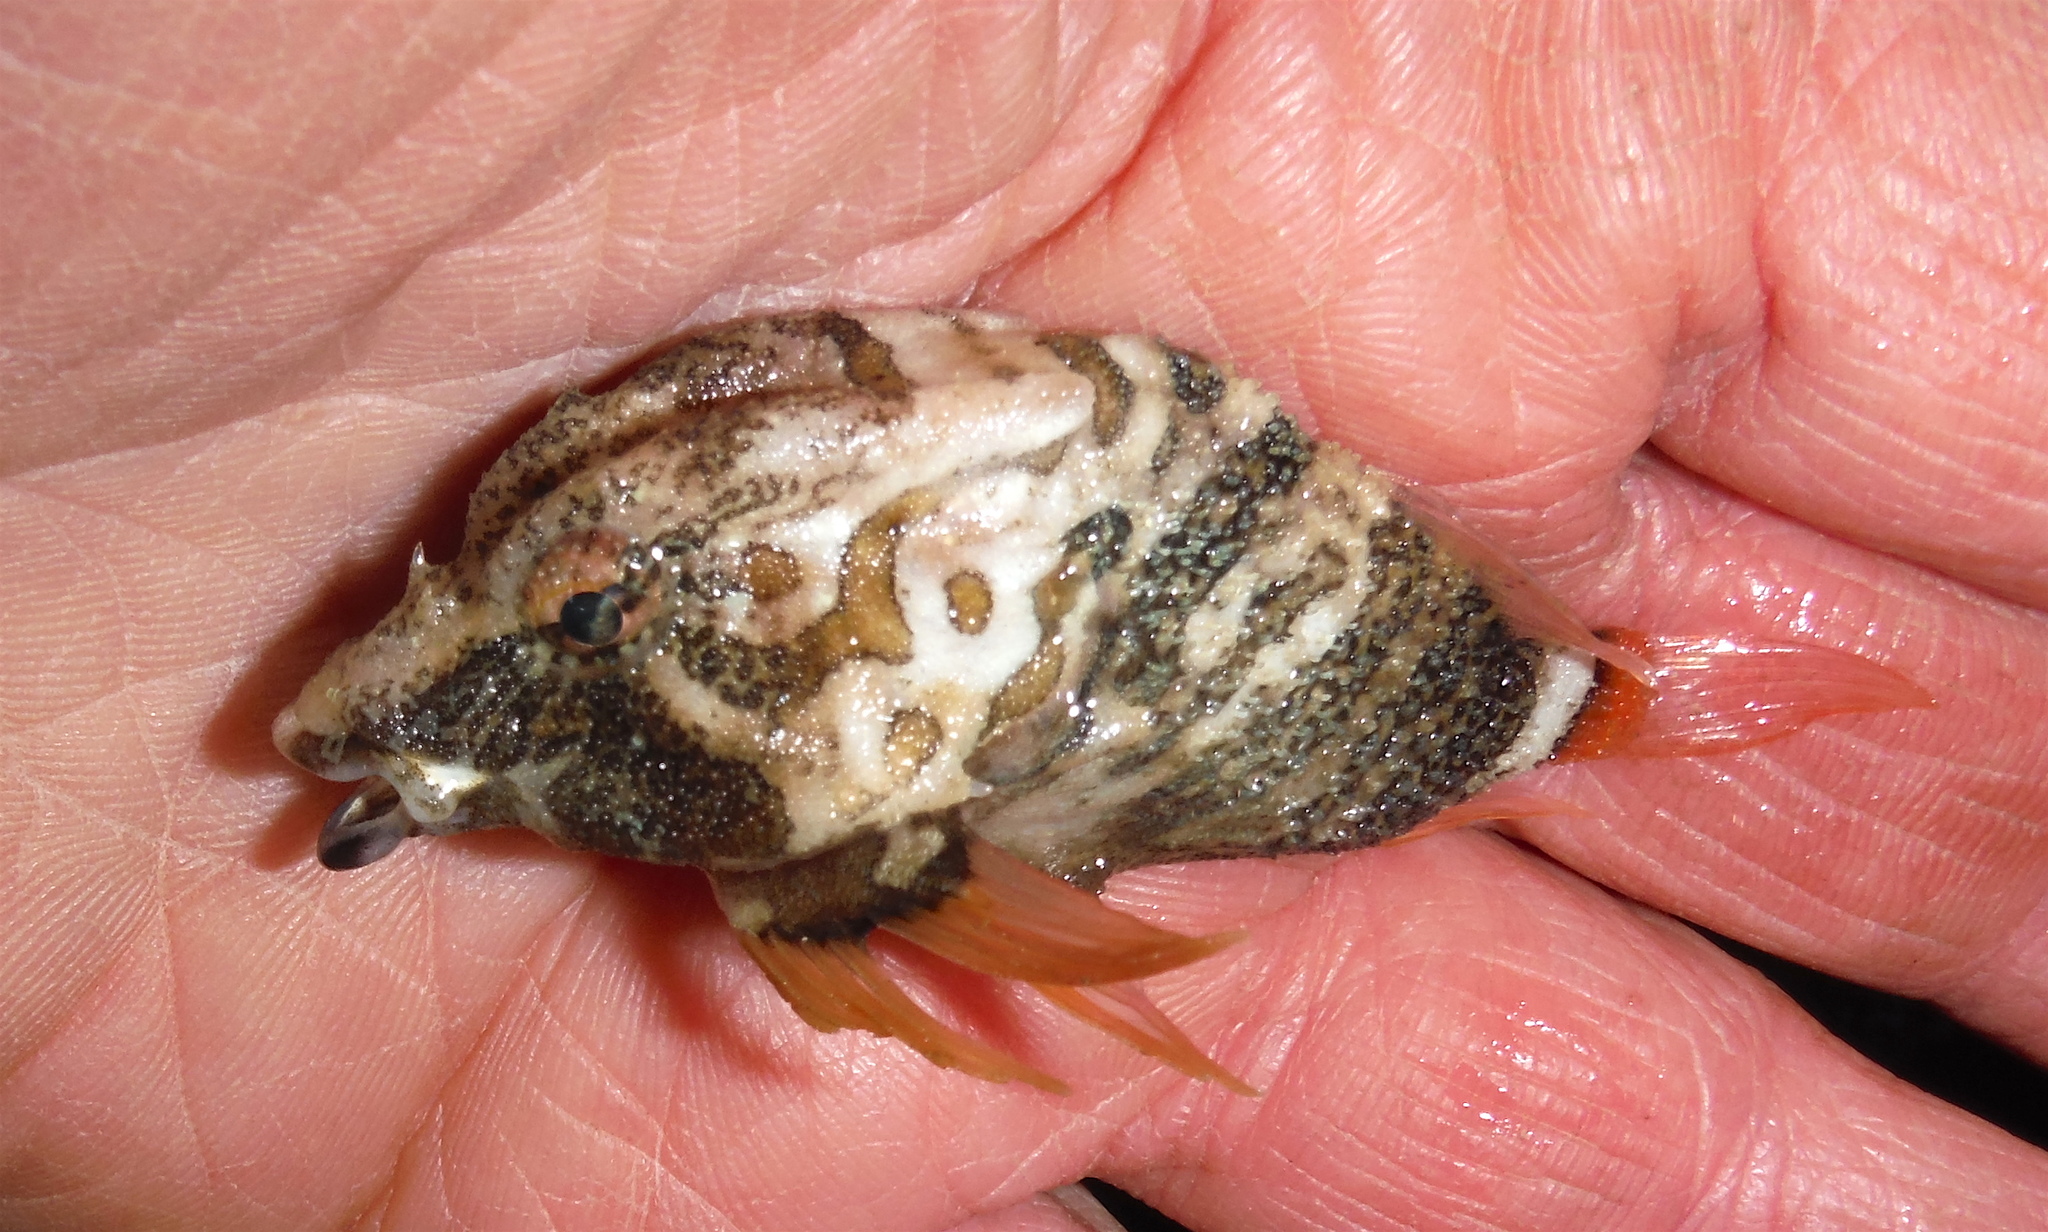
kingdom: Animalia
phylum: Chordata
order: Scorpaeniformes
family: Rhamphocottidae
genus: Rhamphocottus
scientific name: Rhamphocottus richardsonii
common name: Grunt sculpin
